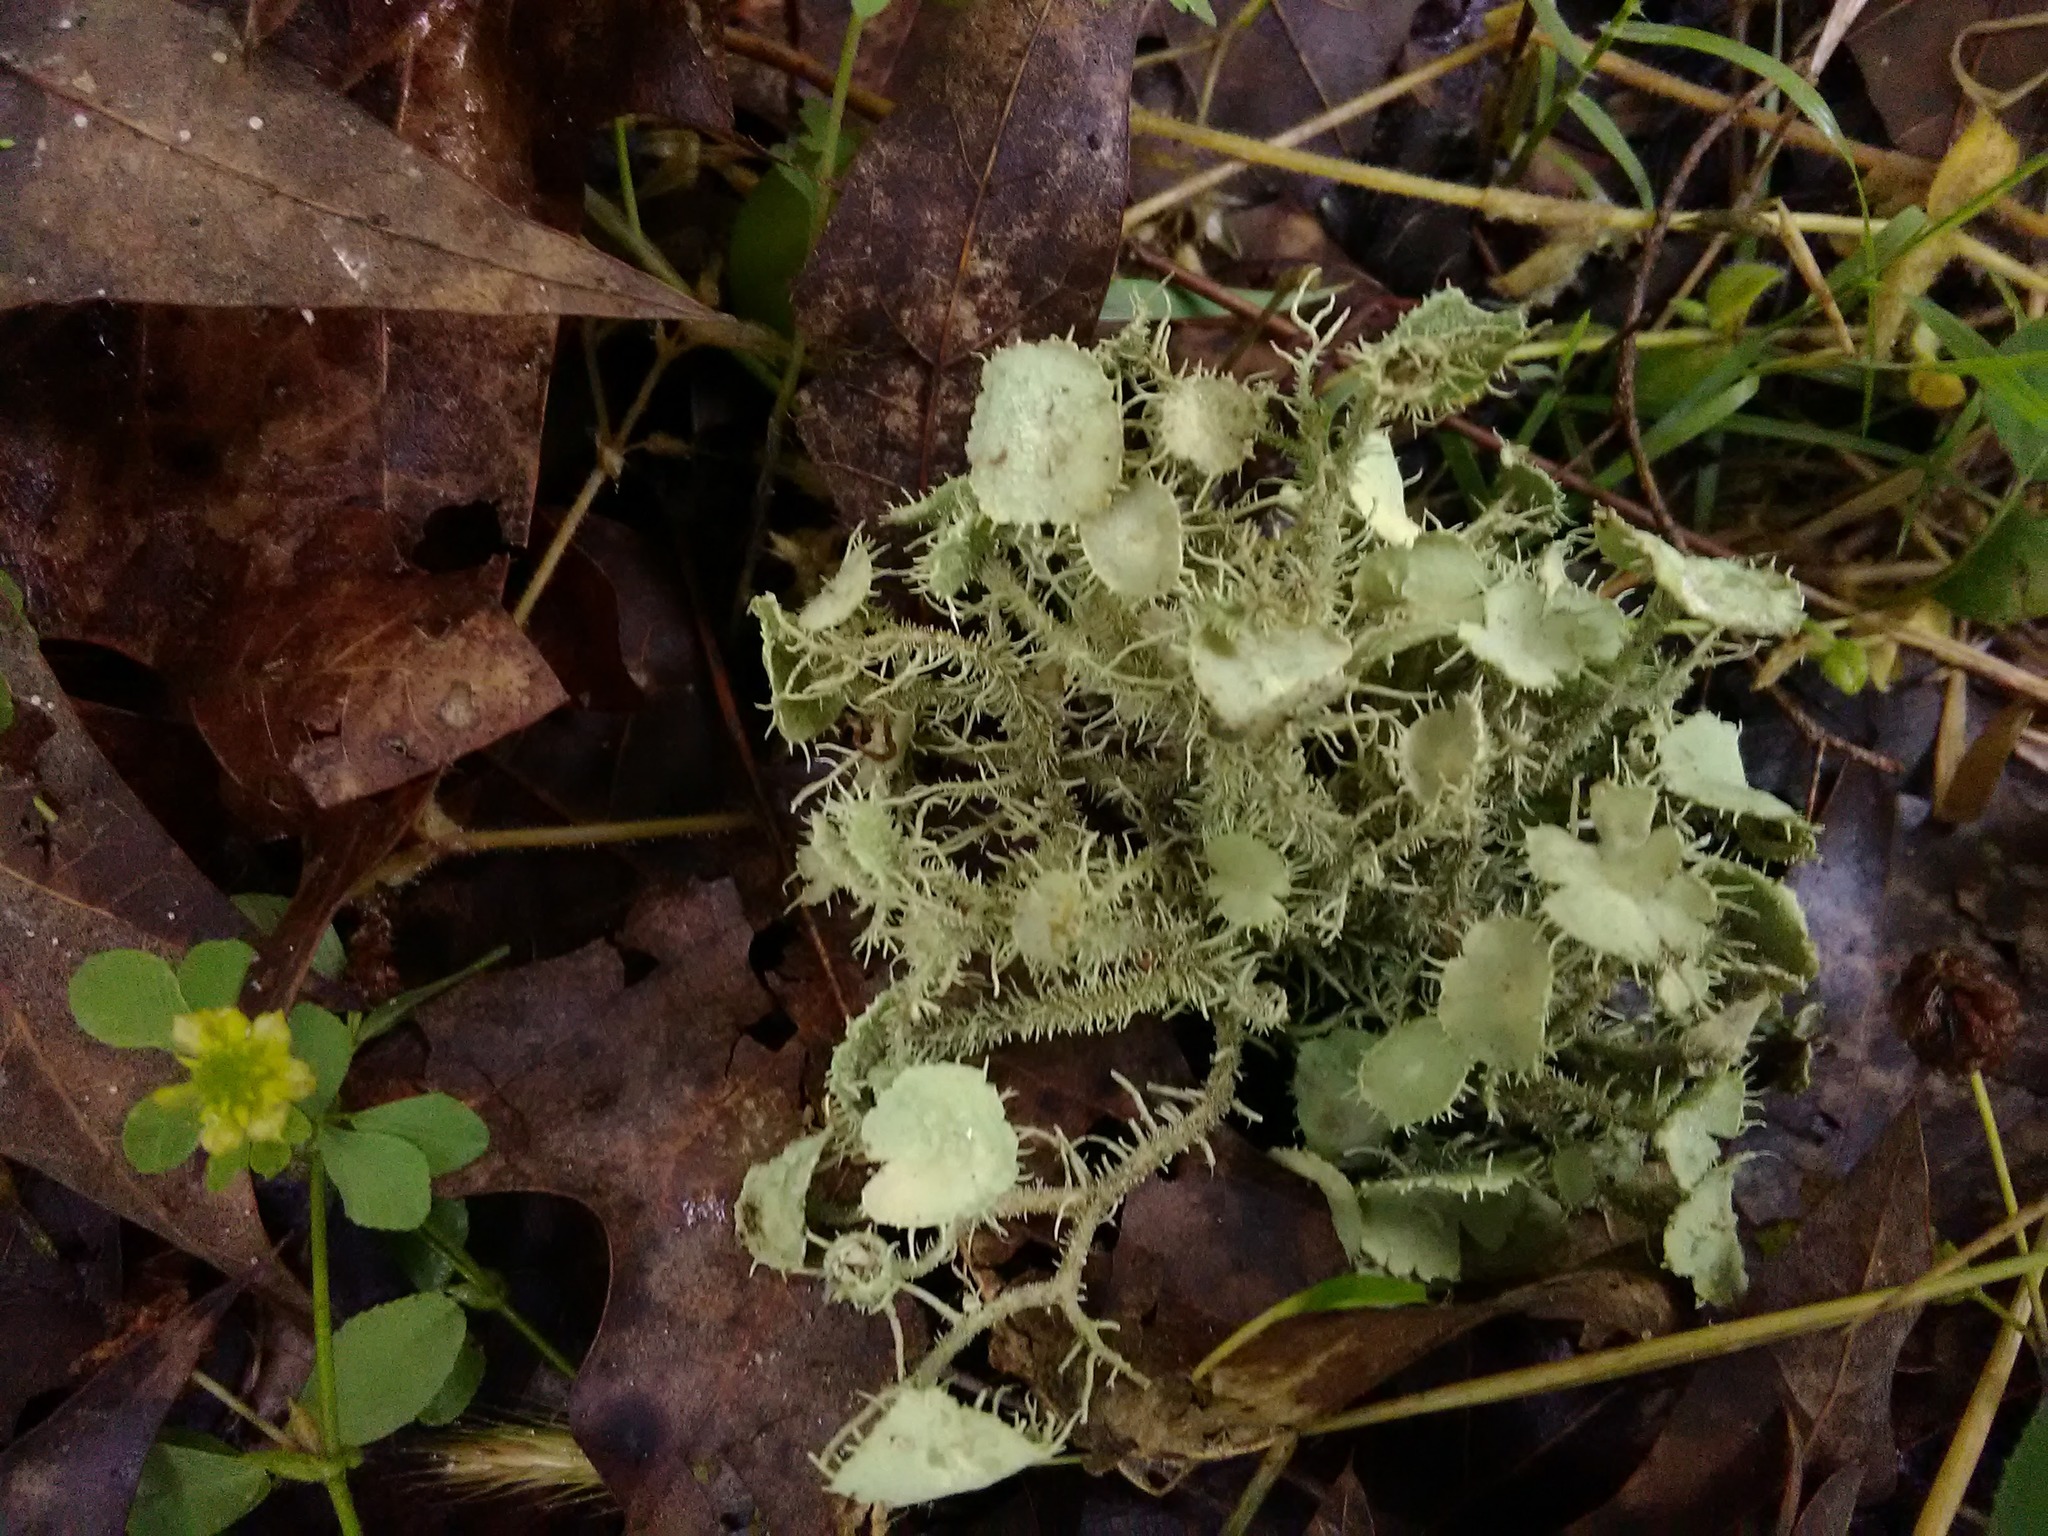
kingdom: Fungi
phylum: Ascomycota
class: Lecanoromycetes
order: Lecanorales
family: Parmeliaceae
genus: Usnea
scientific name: Usnea strigosa
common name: Bushy beard lichen
